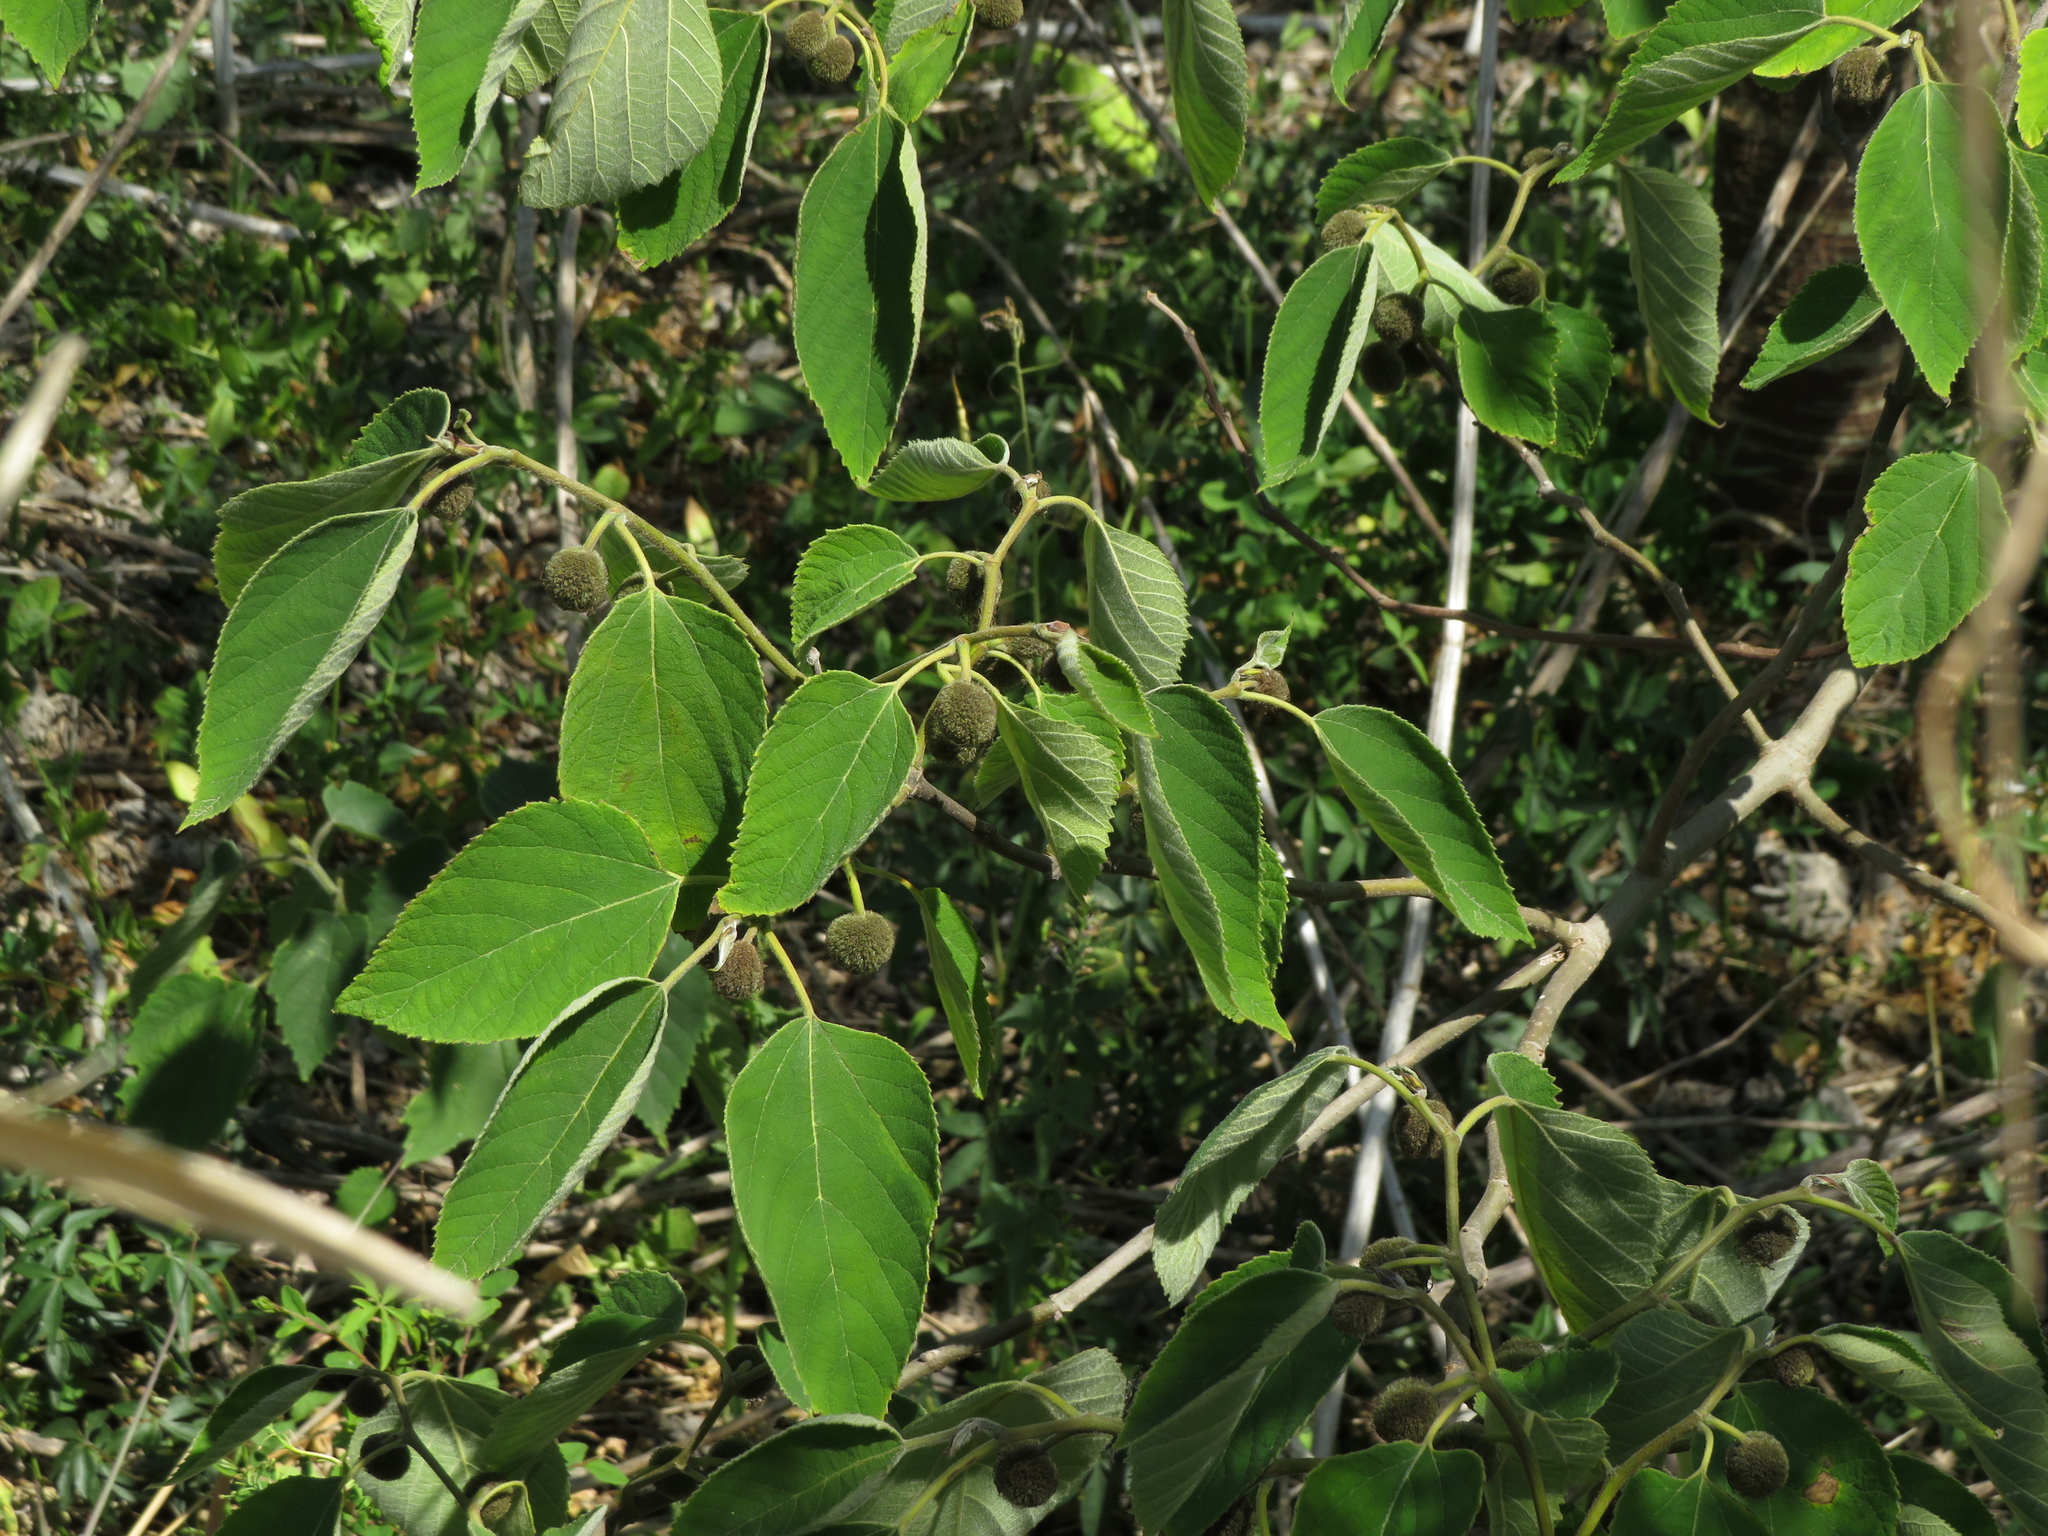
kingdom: Plantae
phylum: Tracheophyta
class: Magnoliopsida
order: Rosales
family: Moraceae
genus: Broussonetia
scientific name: Broussonetia papyrifera
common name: Paper mulberry
